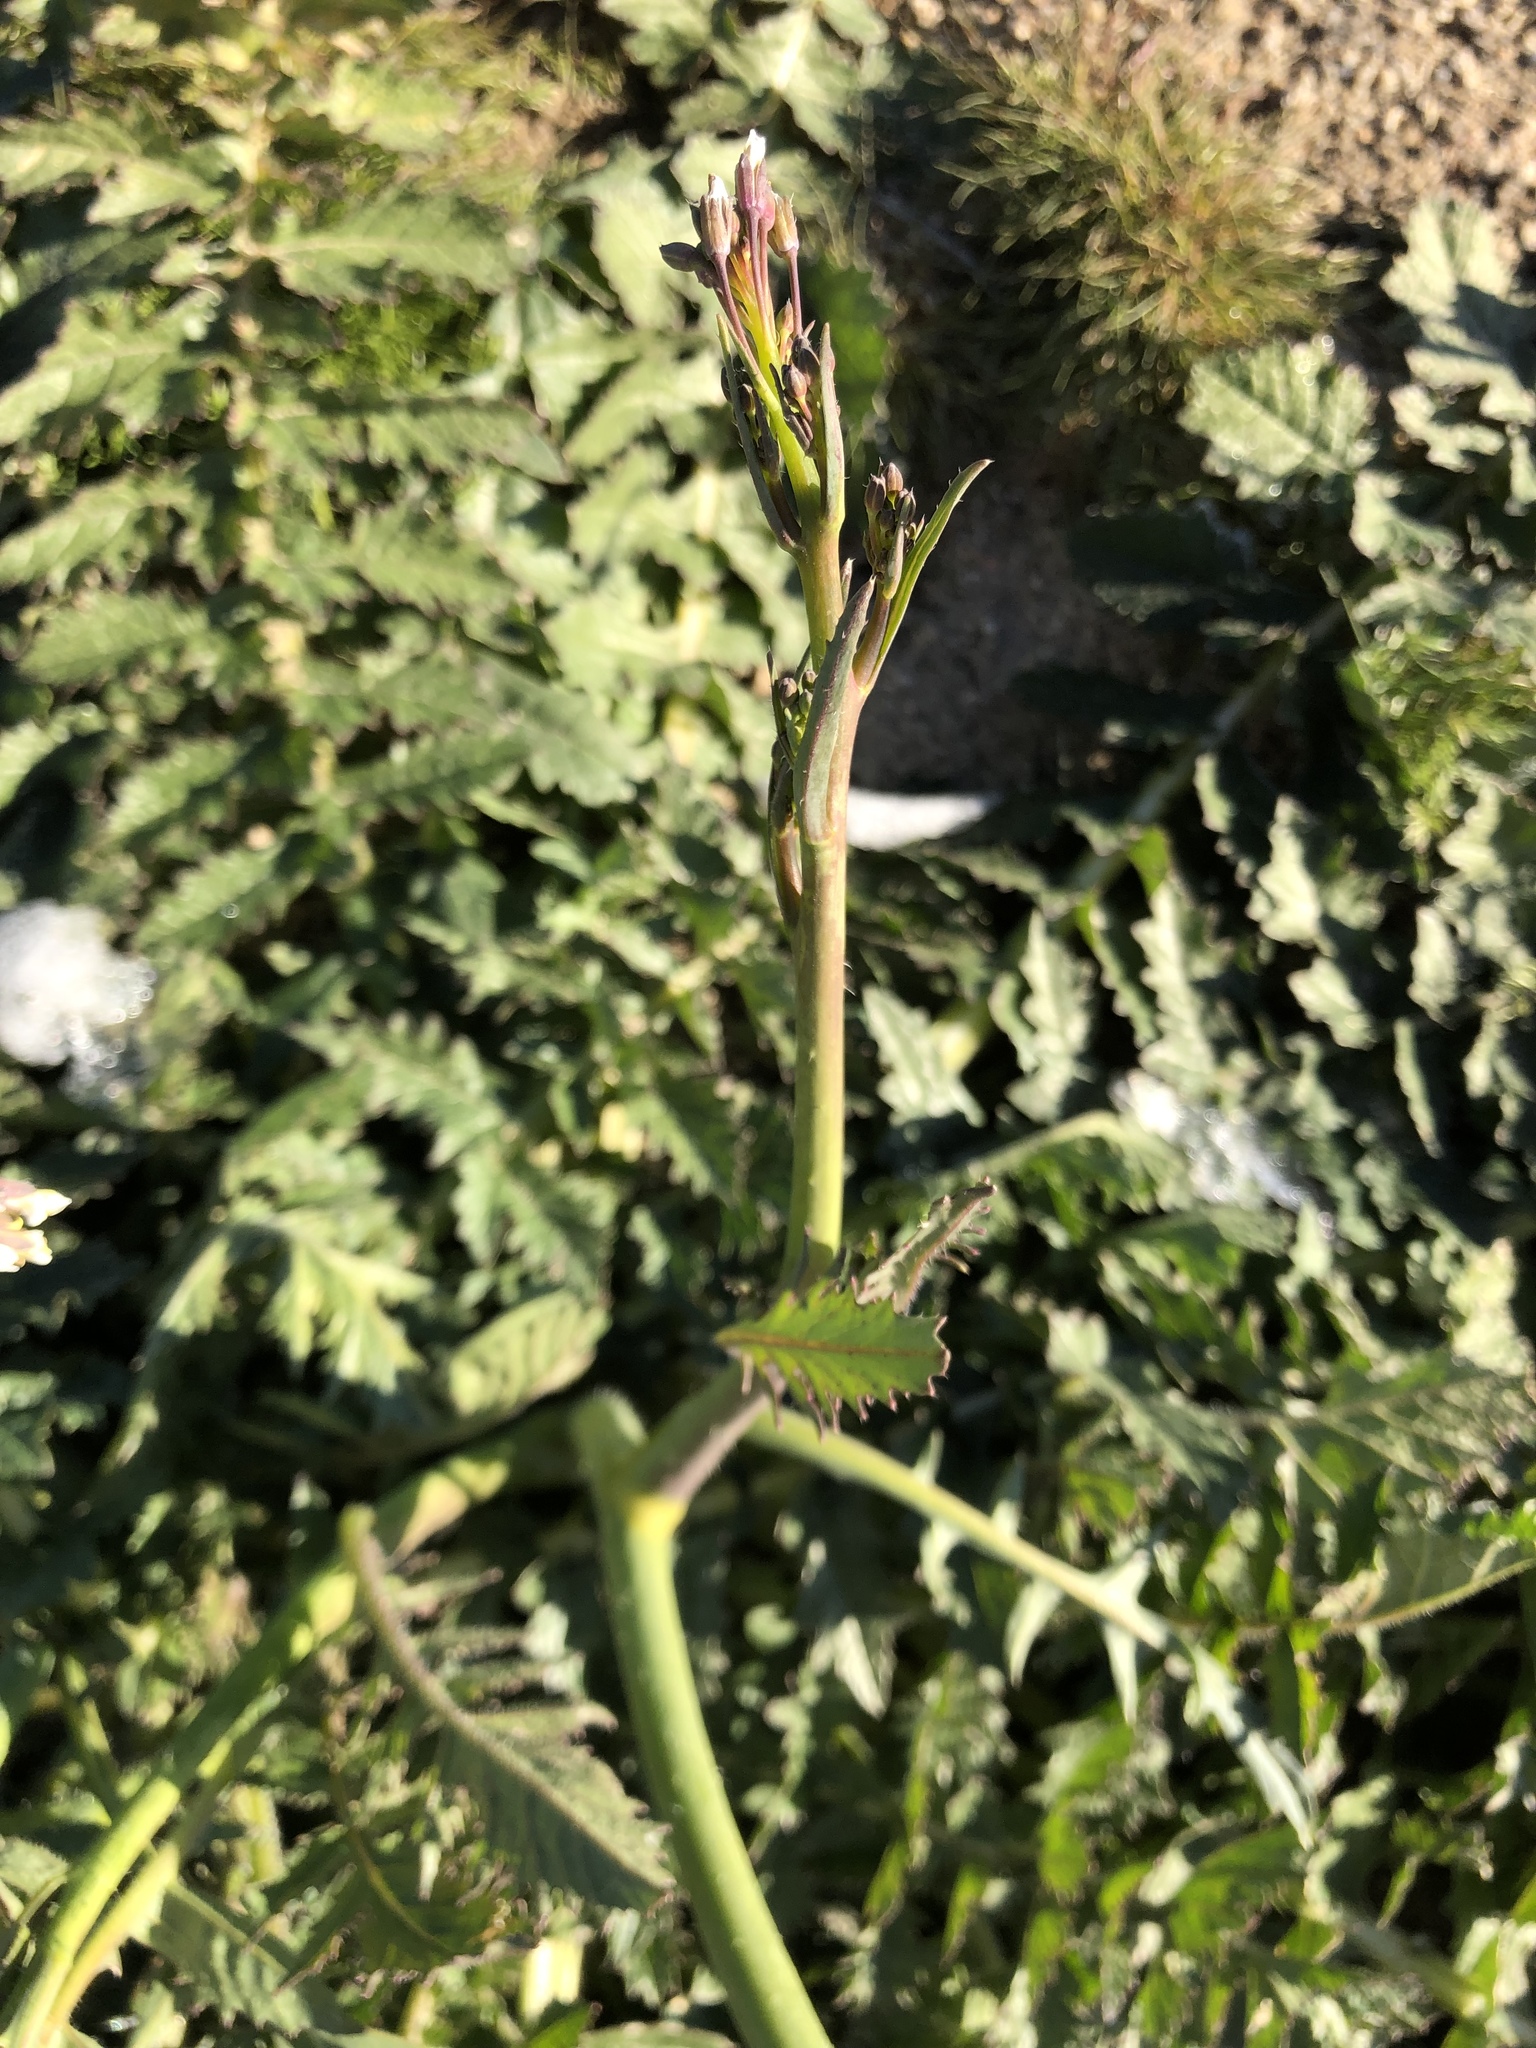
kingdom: Plantae
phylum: Tracheophyta
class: Magnoliopsida
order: Brassicales
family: Brassicaceae
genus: Brassica
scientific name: Brassica tournefortii
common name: Pale cabbage
